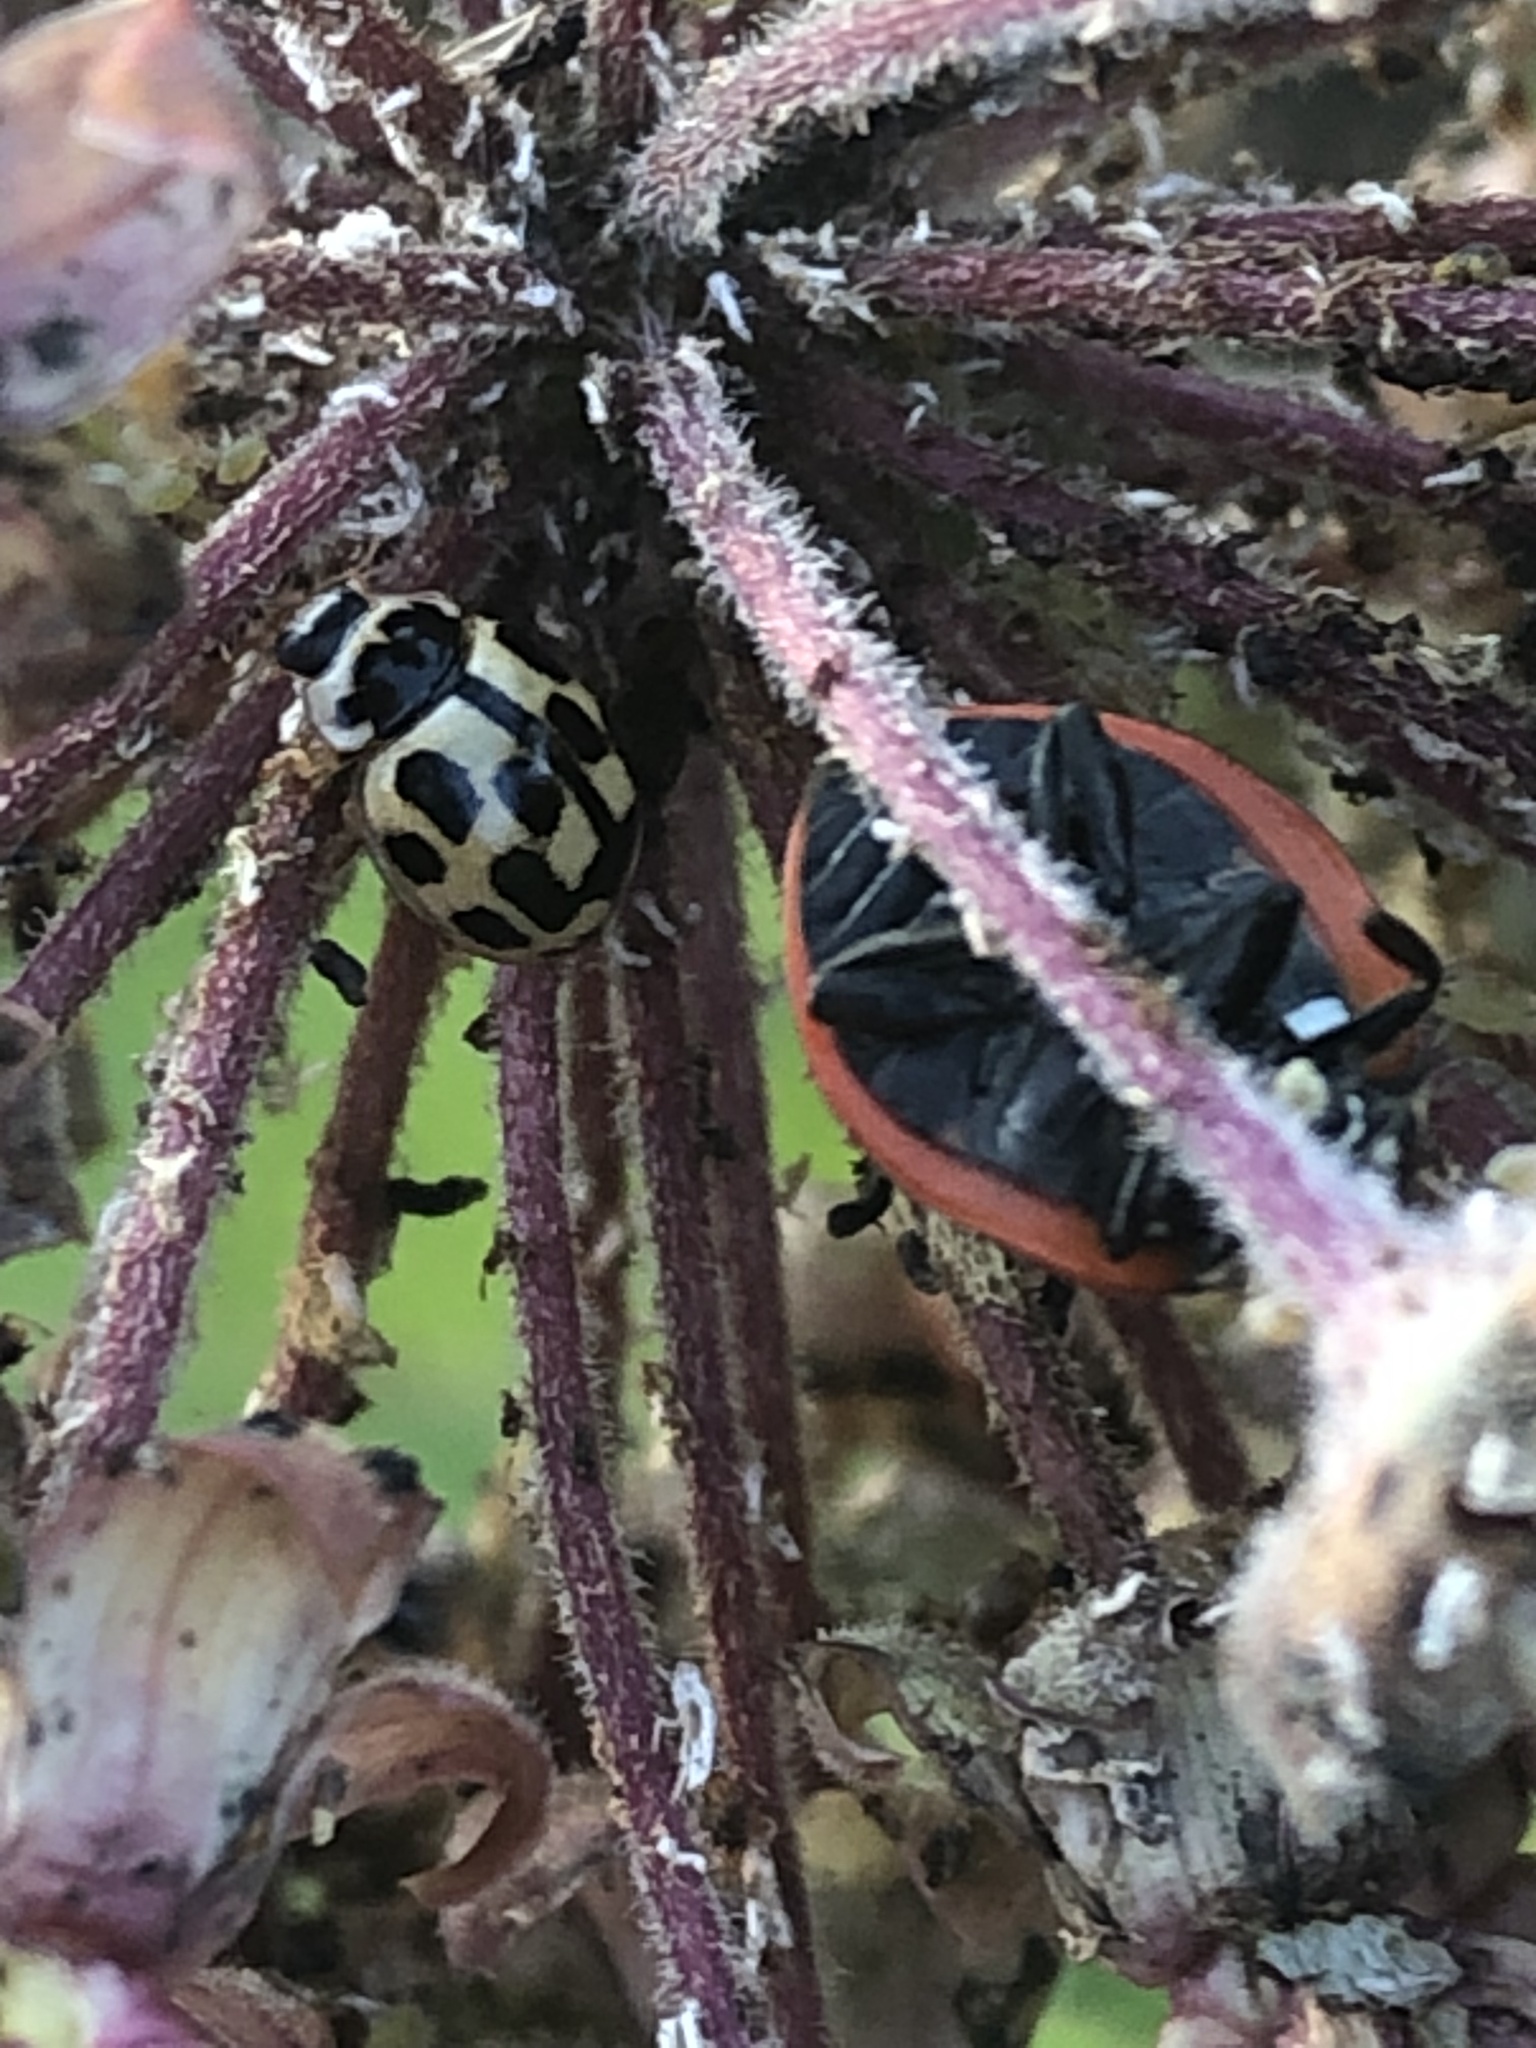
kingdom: Animalia
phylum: Arthropoda
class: Insecta
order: Coleoptera
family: Coccinellidae
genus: Propylaea
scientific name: Propylaea quatuordecimpunctata
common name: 14-spotted ladybird beetle
